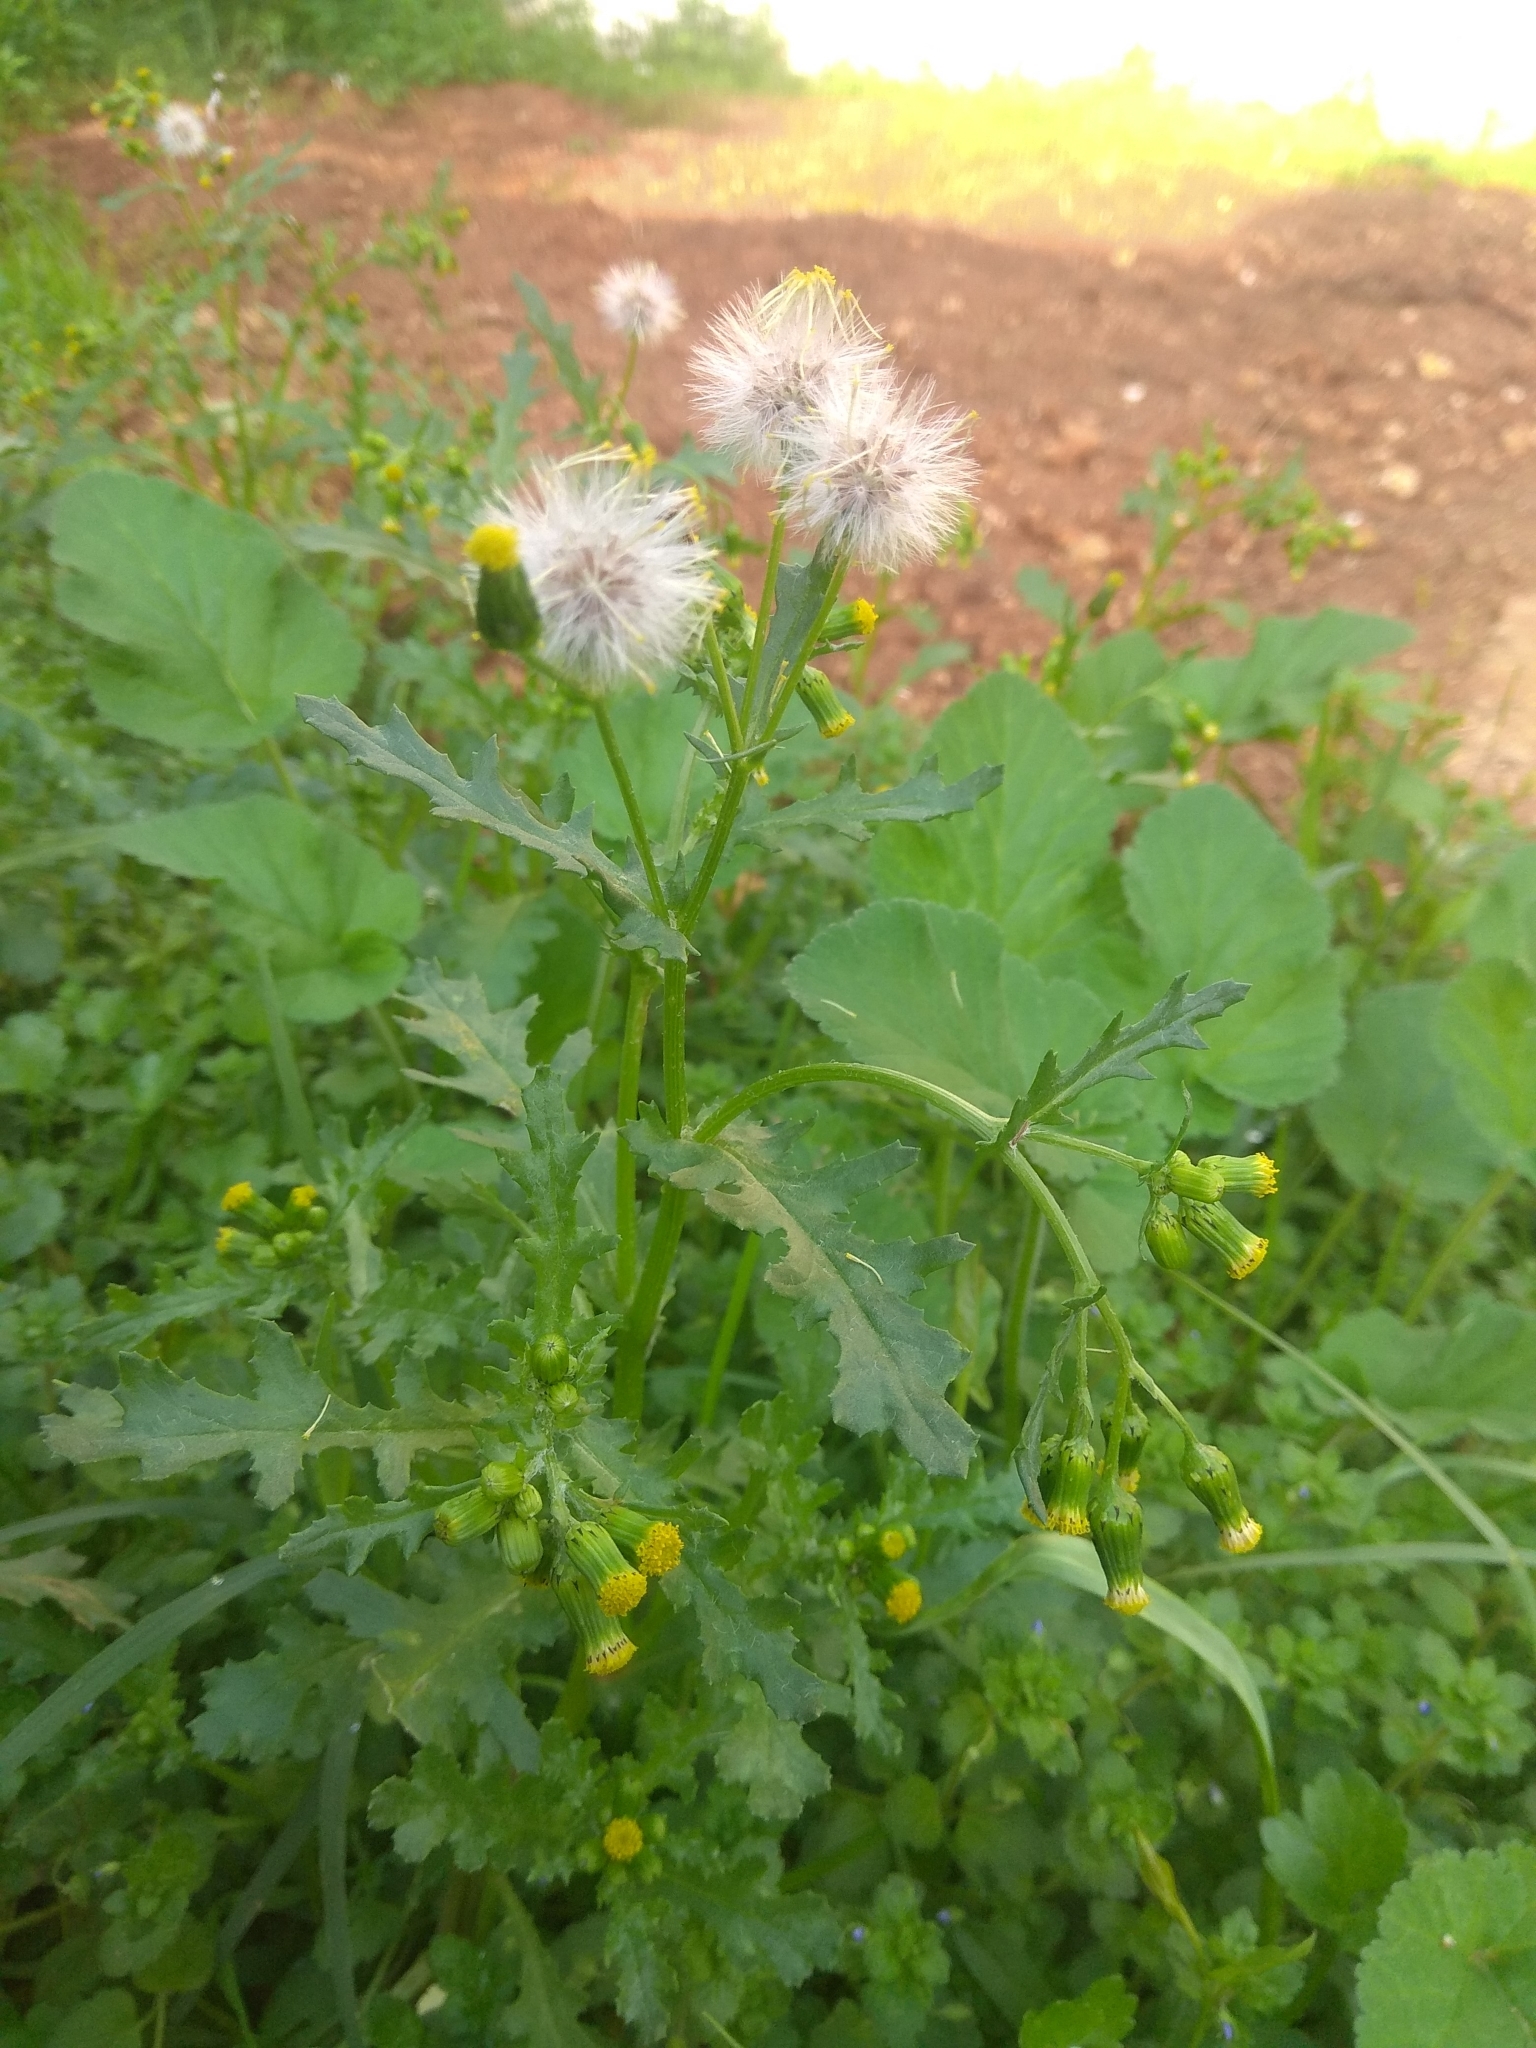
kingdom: Plantae
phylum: Tracheophyta
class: Magnoliopsida
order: Asterales
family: Asteraceae
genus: Senecio
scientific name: Senecio vulgaris
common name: Old-man-in-the-spring
